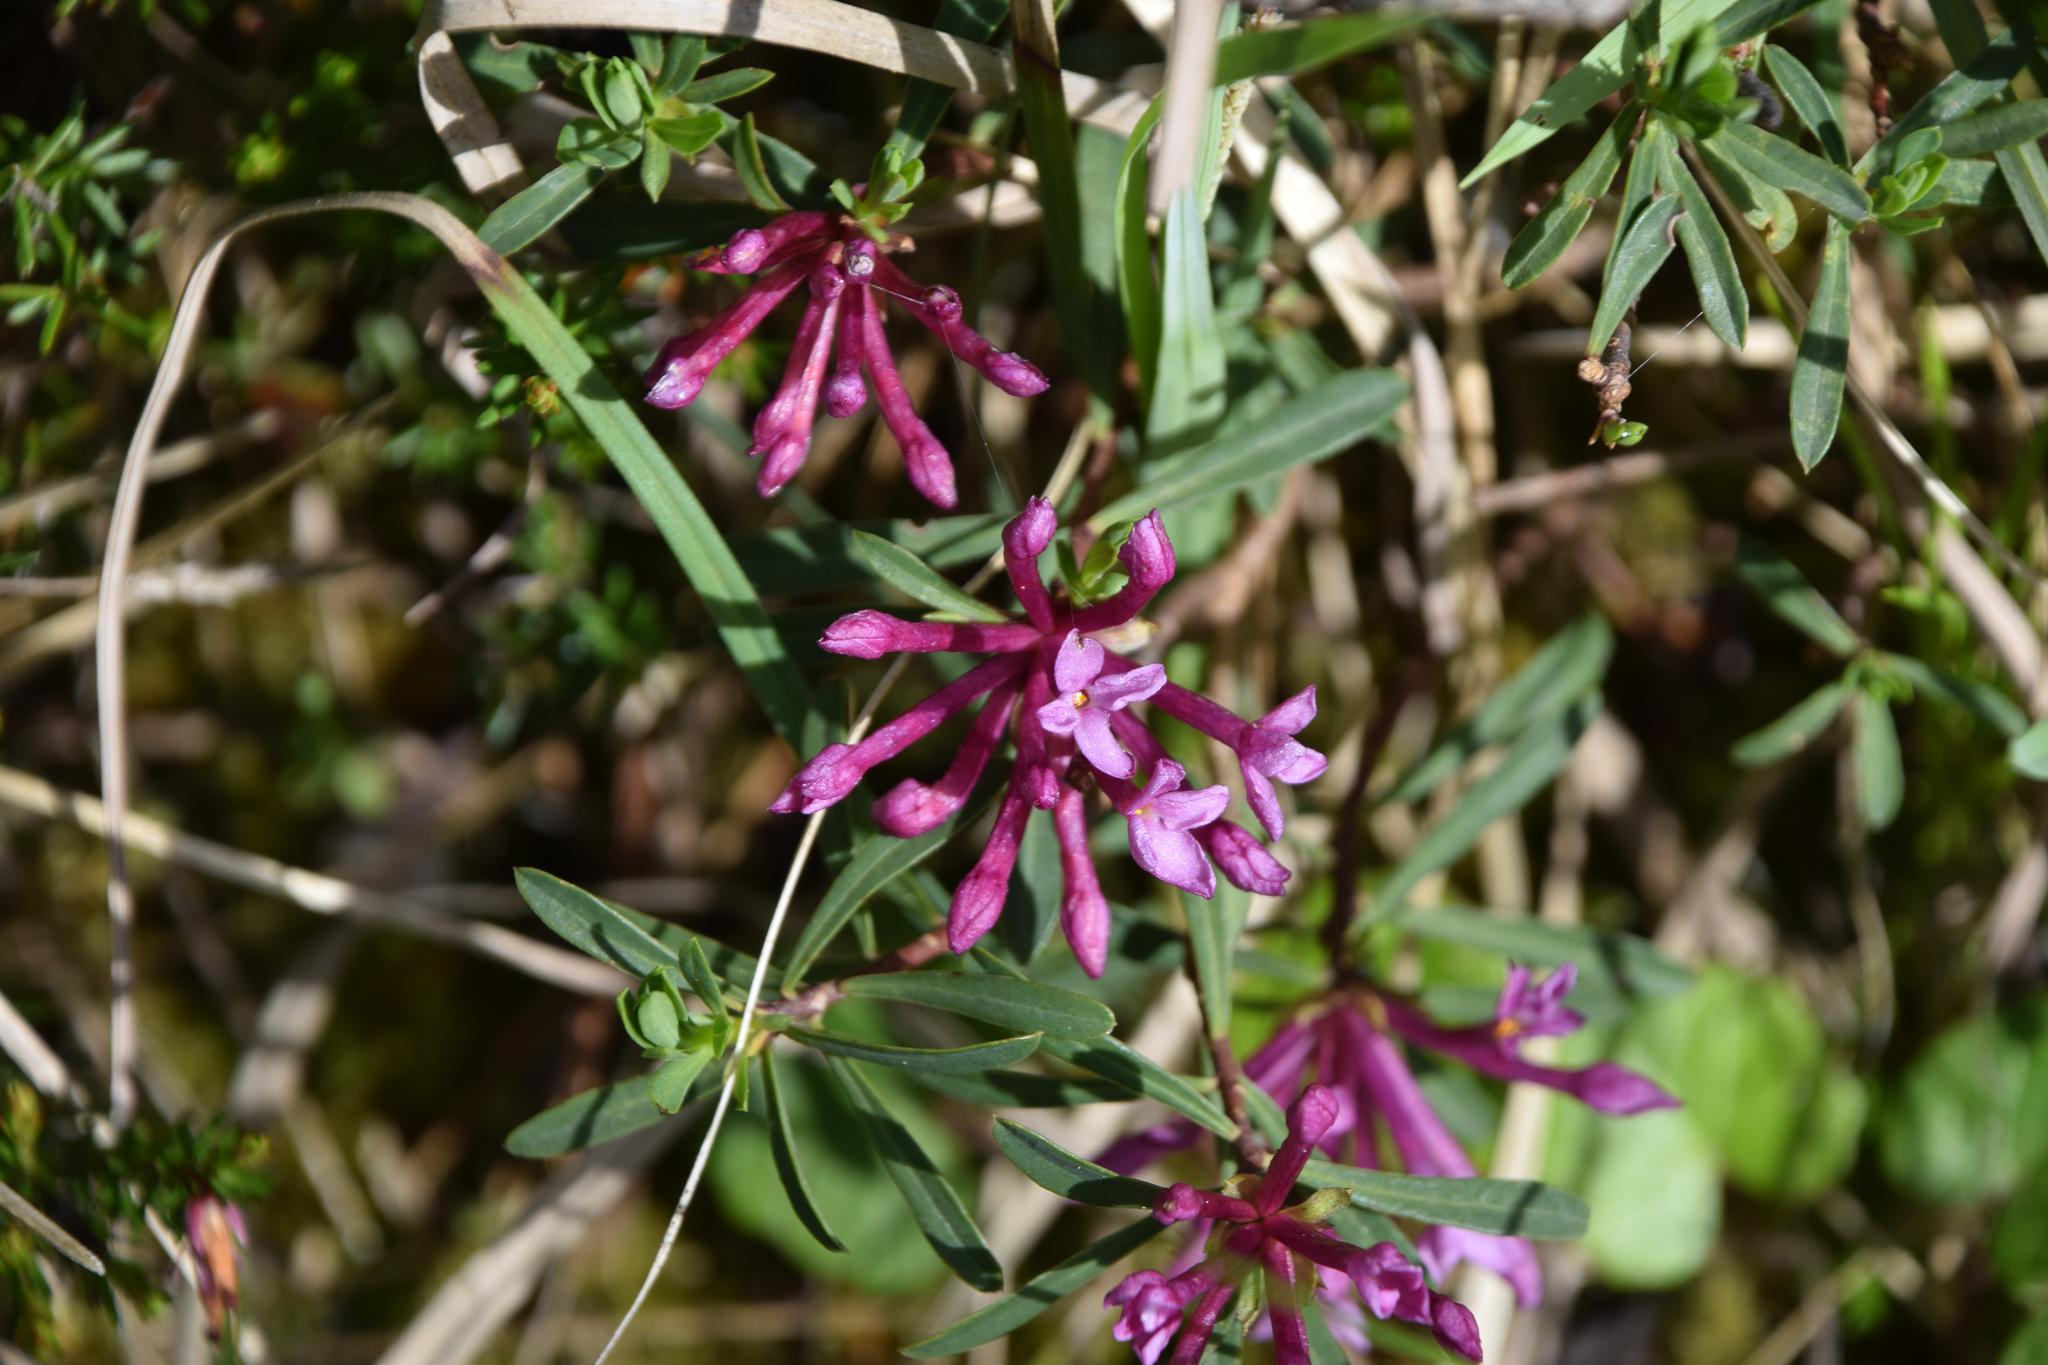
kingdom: Plantae
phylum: Tracheophyta
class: Magnoliopsida
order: Malvales
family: Thymelaeaceae
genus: Daphne
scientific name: Daphne striata
